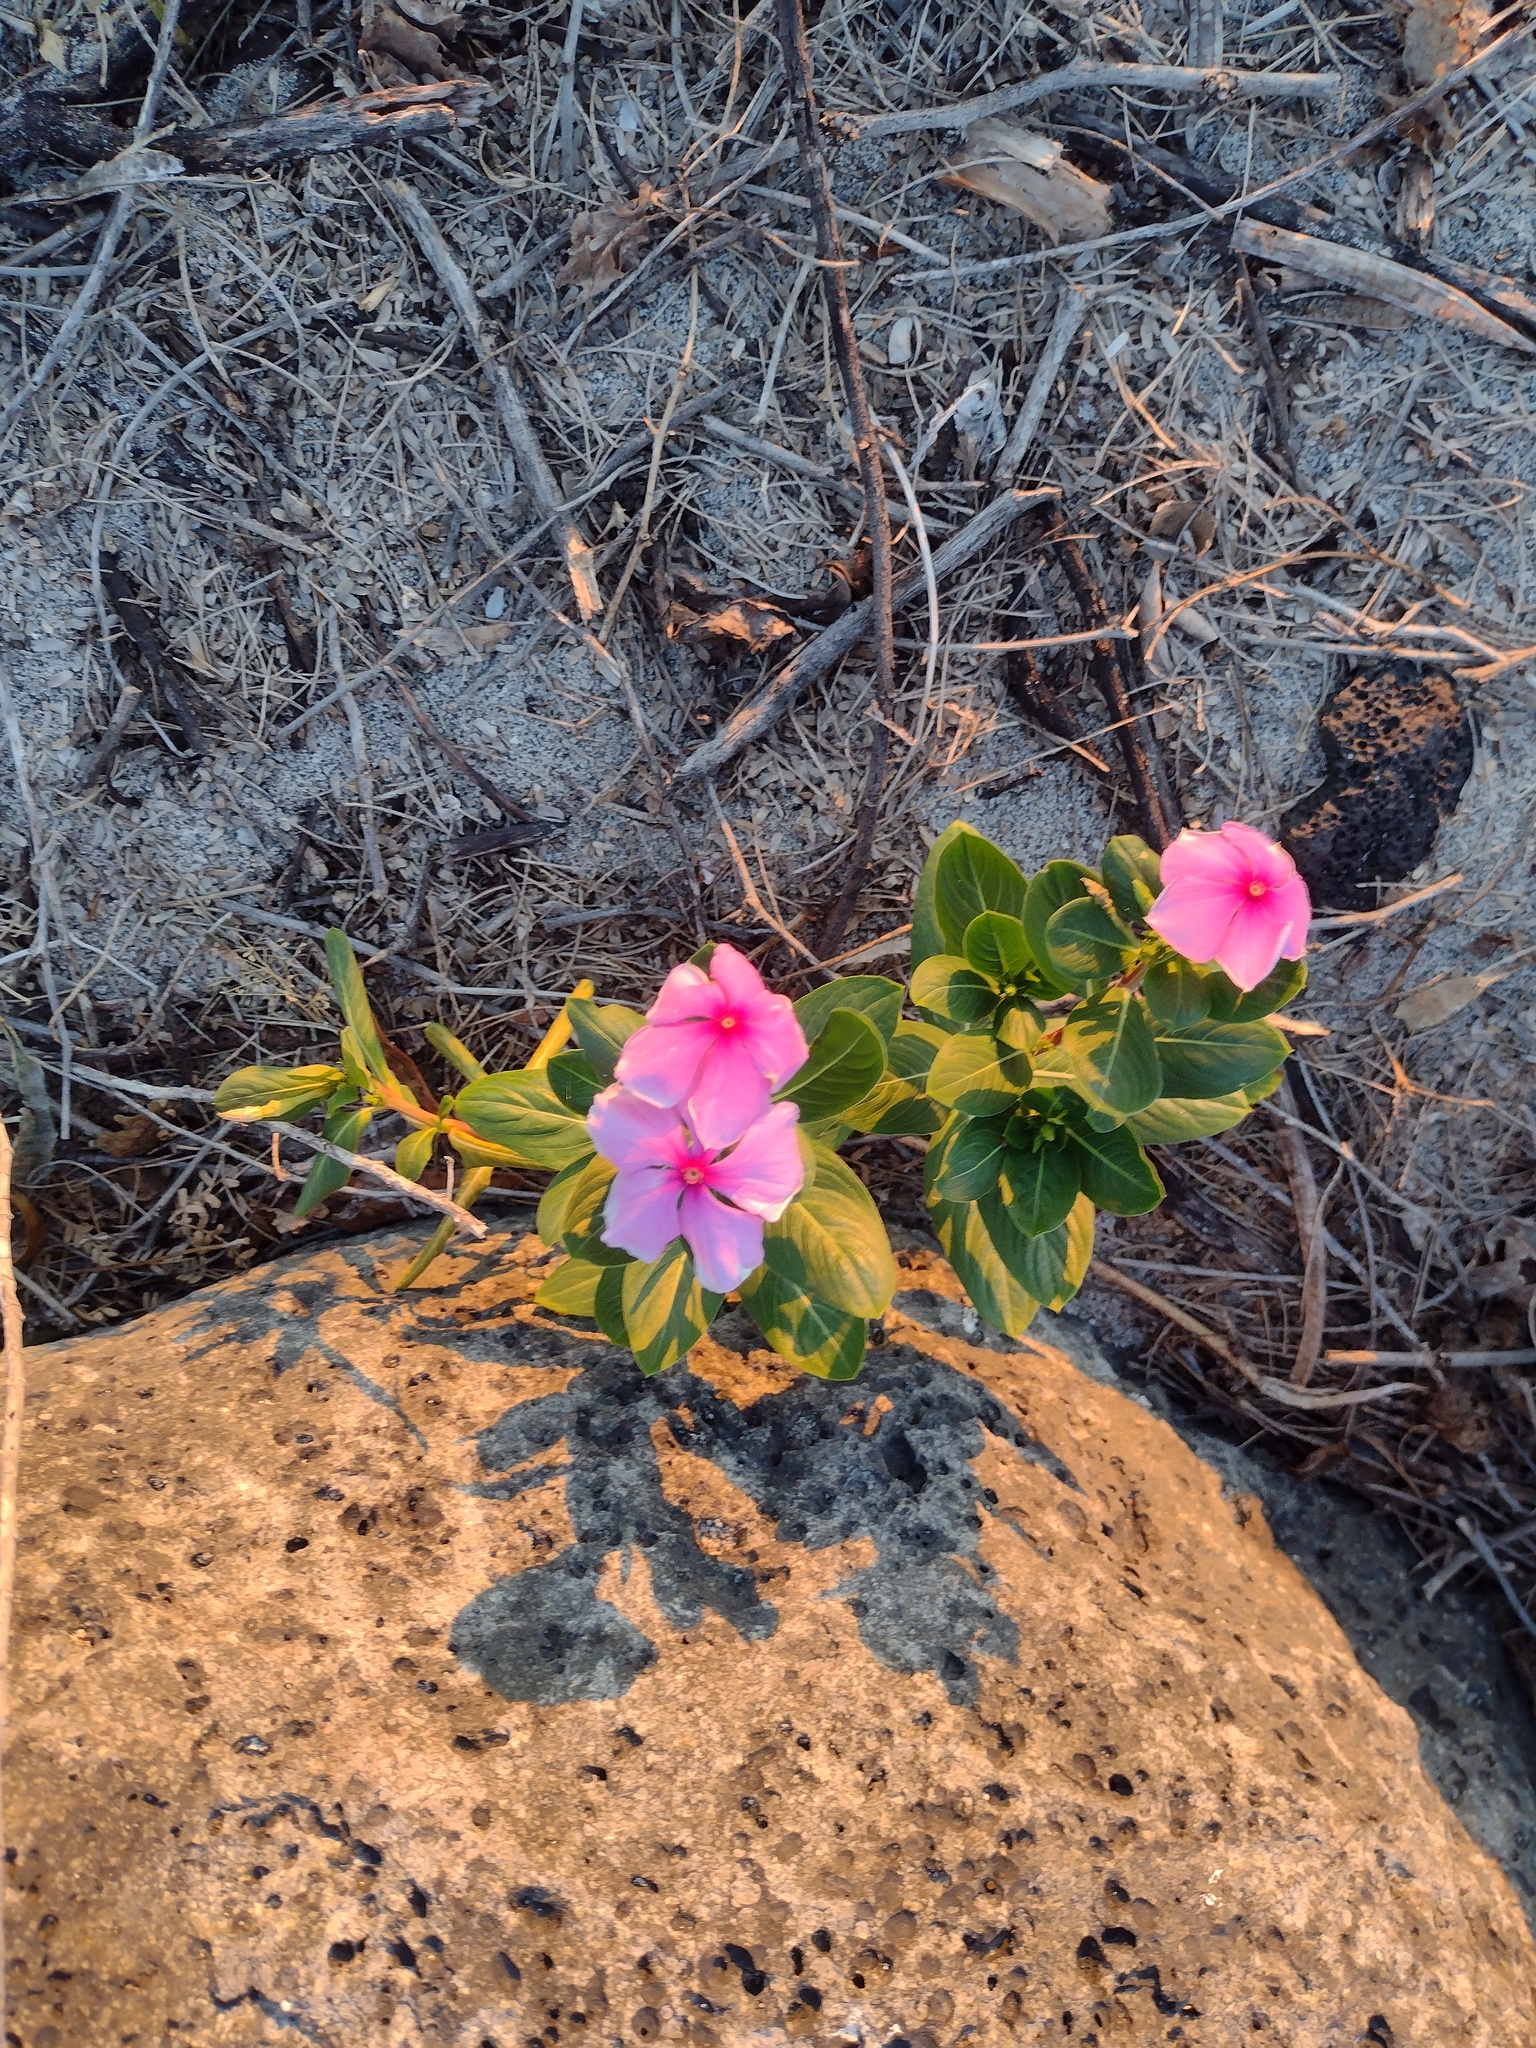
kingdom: Plantae
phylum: Tracheophyta
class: Magnoliopsida
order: Gentianales
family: Apocynaceae
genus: Catharanthus
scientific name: Catharanthus roseus
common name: Madagascar periwinkle
